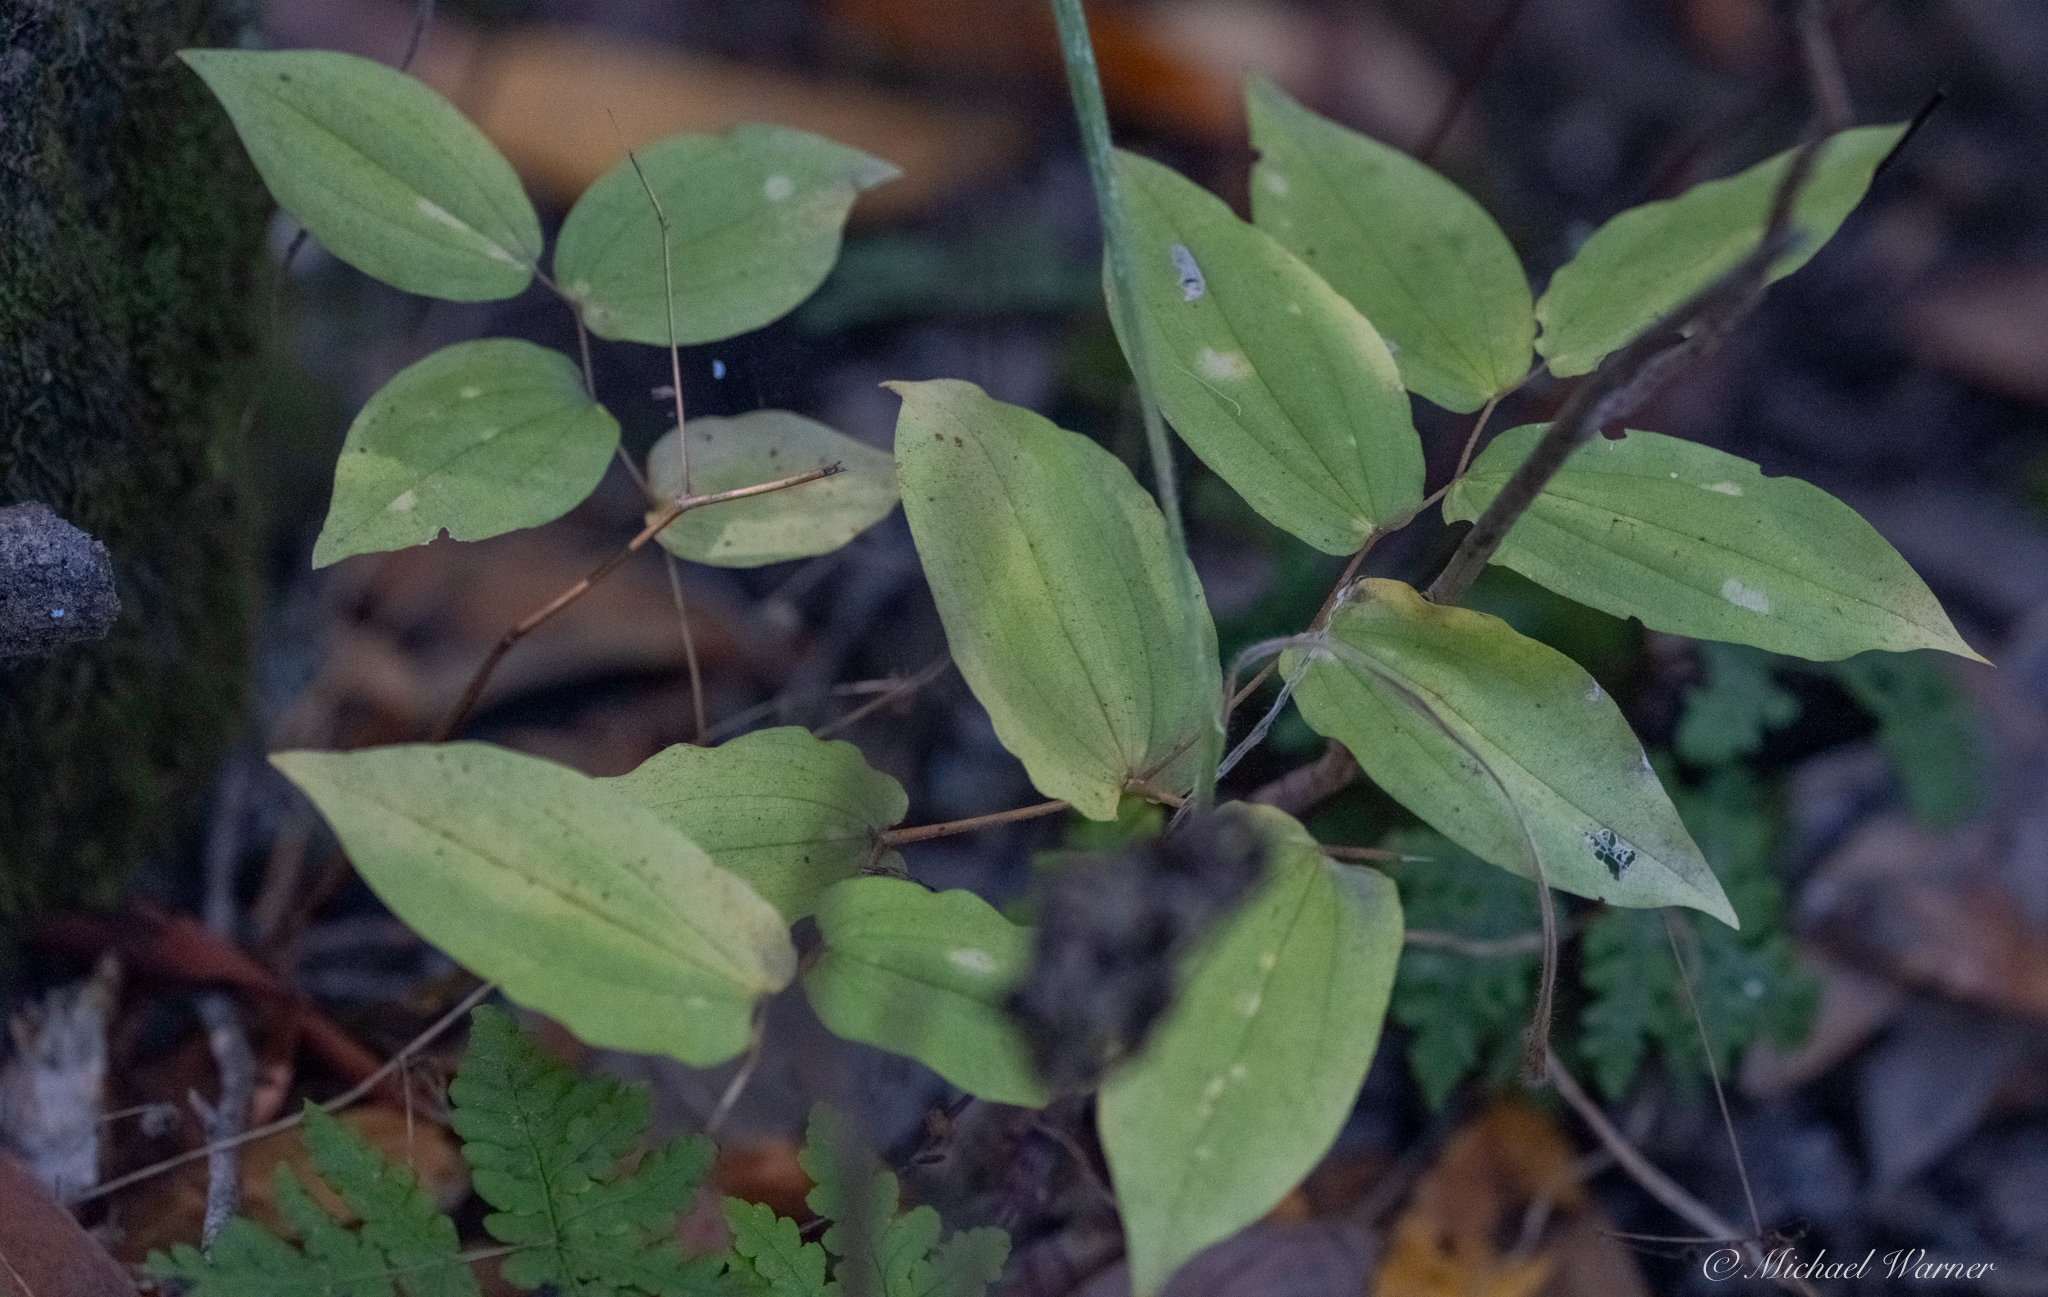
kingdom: Plantae
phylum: Tracheophyta
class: Liliopsida
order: Liliales
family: Liliaceae
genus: Prosartes
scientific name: Prosartes hookeri
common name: Fairy-bells
